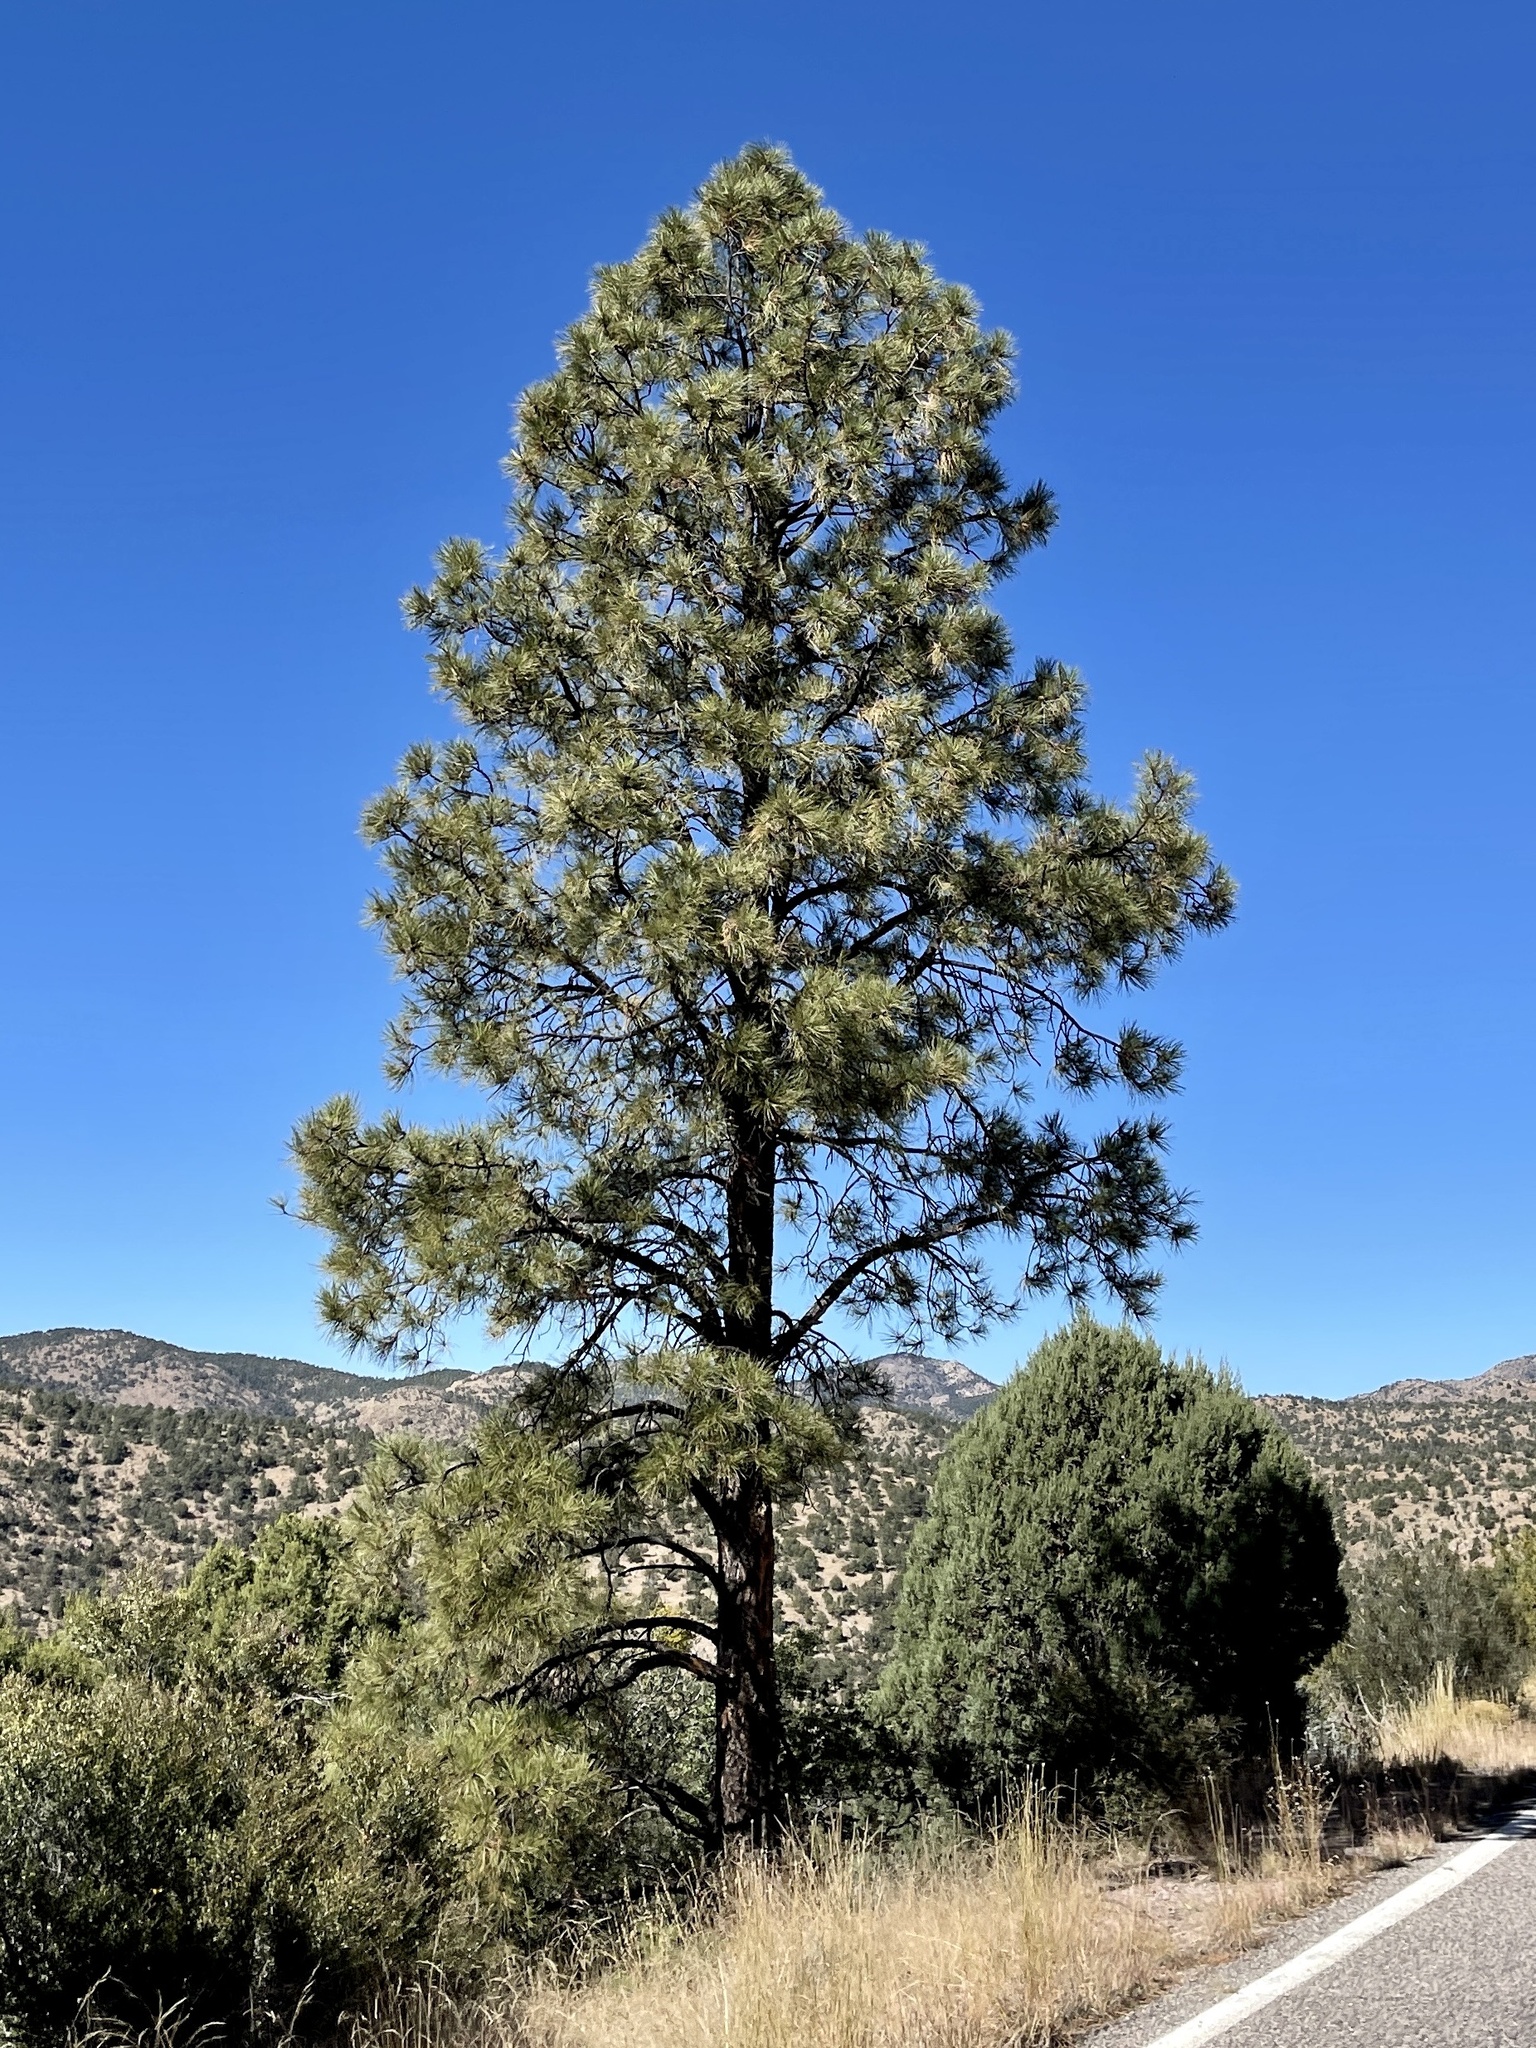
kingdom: Plantae
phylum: Tracheophyta
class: Pinopsida
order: Pinales
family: Pinaceae
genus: Pinus
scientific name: Pinus ponderosa
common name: Western yellow-pine
